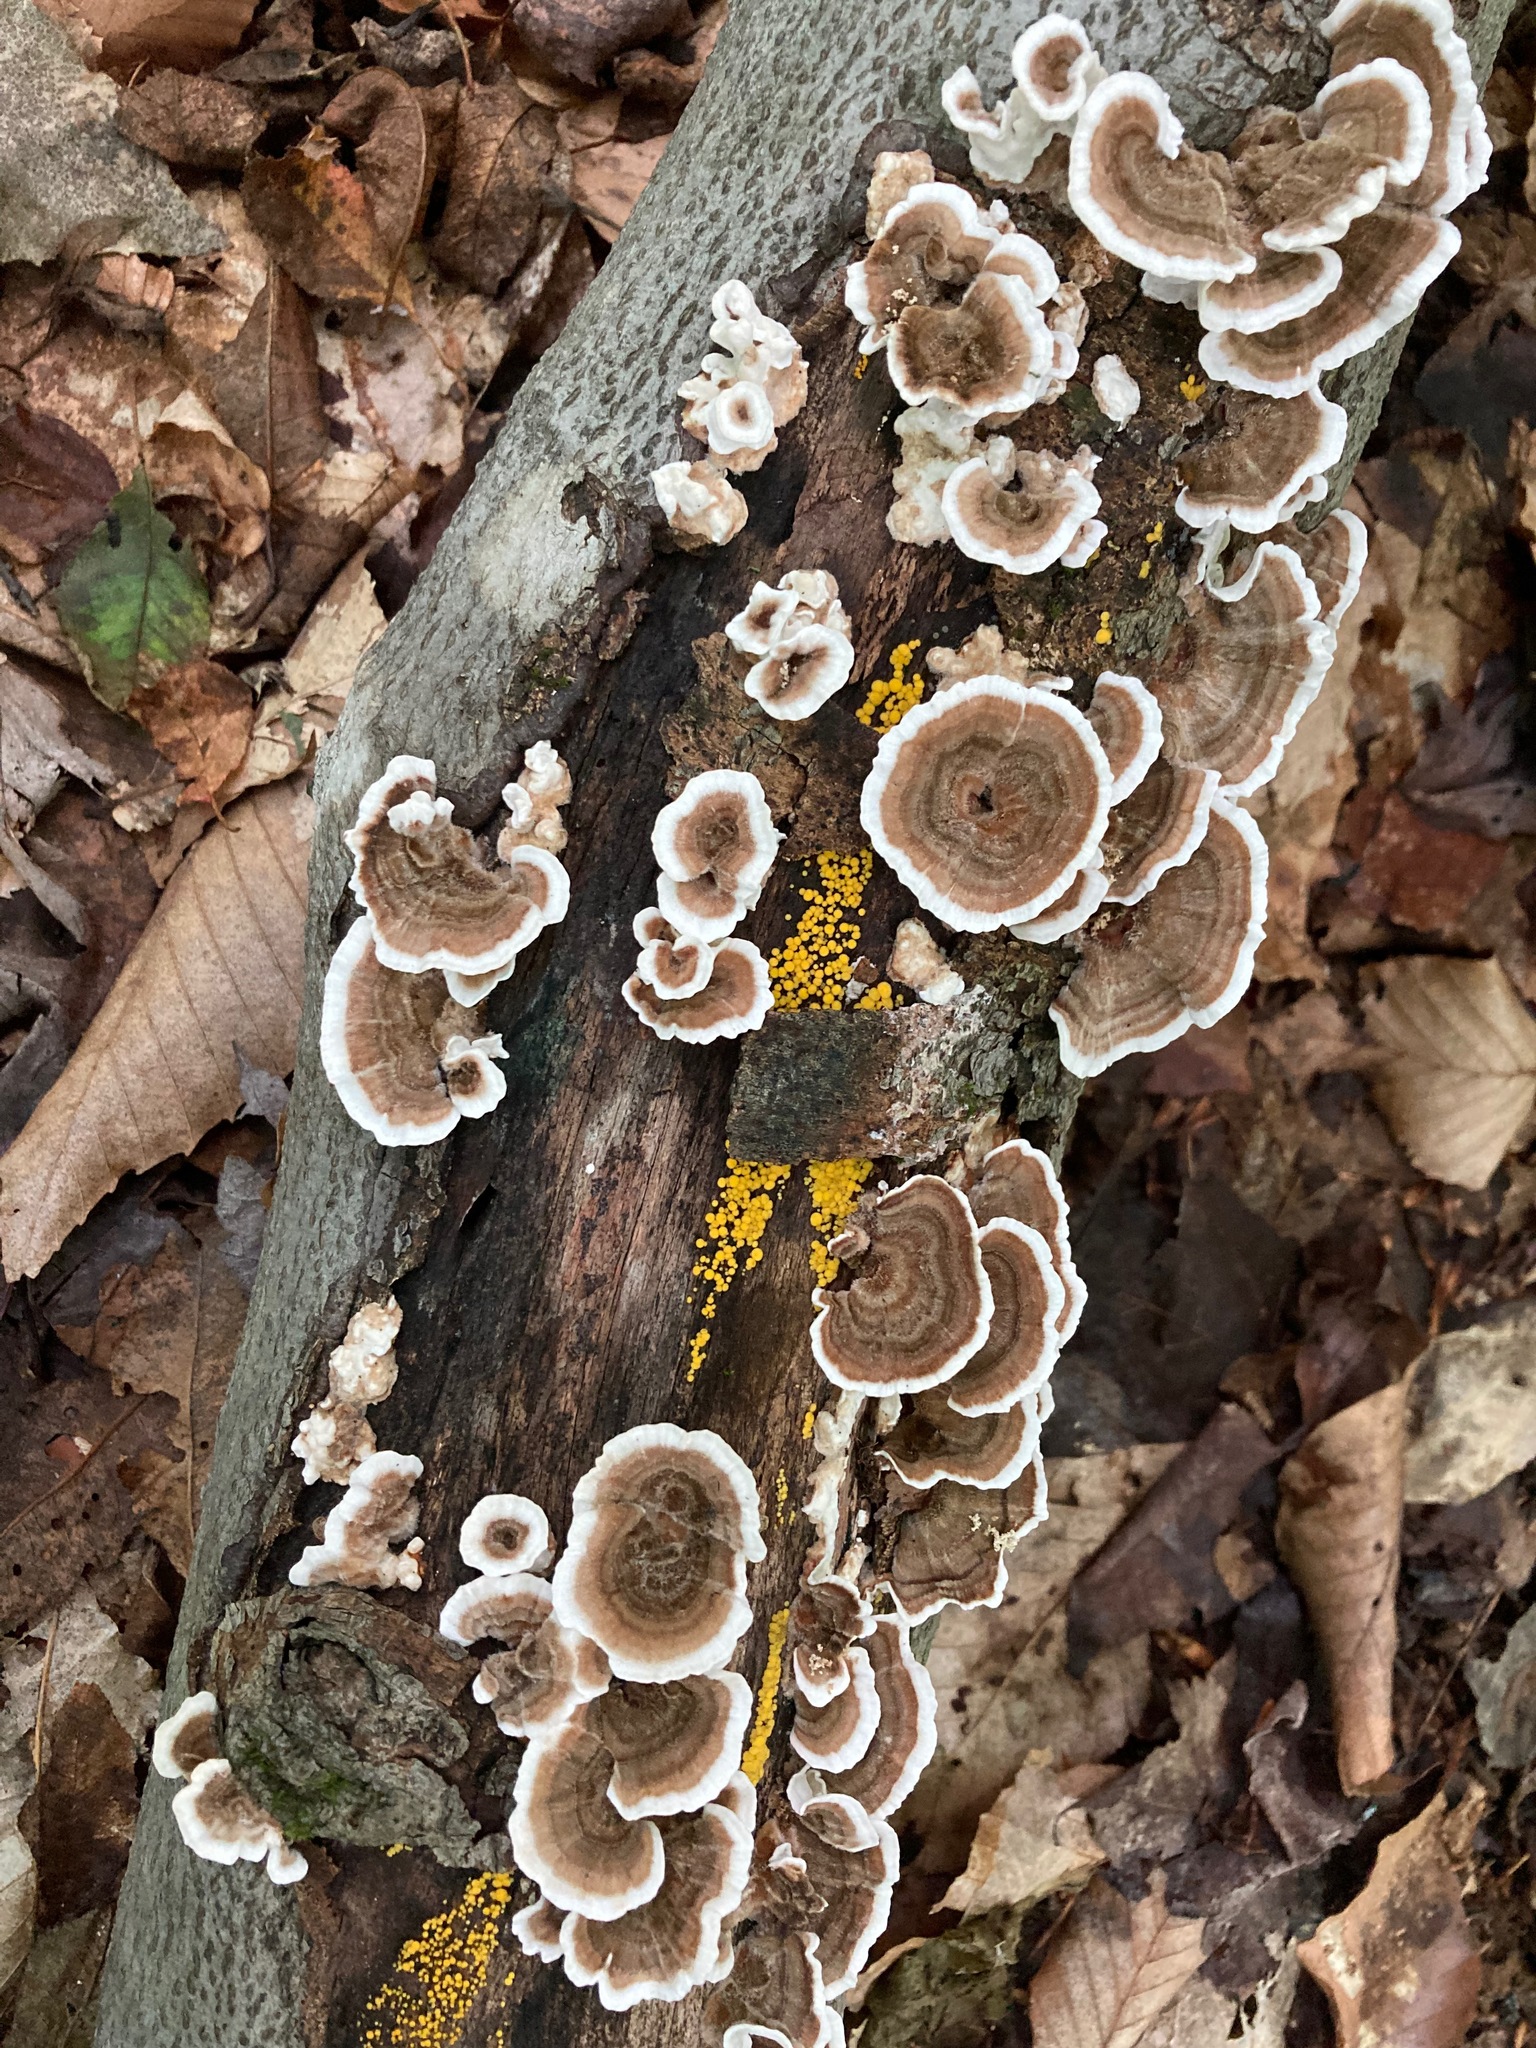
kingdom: Fungi
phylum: Basidiomycota
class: Agaricomycetes
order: Polyporales
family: Polyporaceae
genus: Trametes
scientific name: Trametes versicolor
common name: Turkeytail
